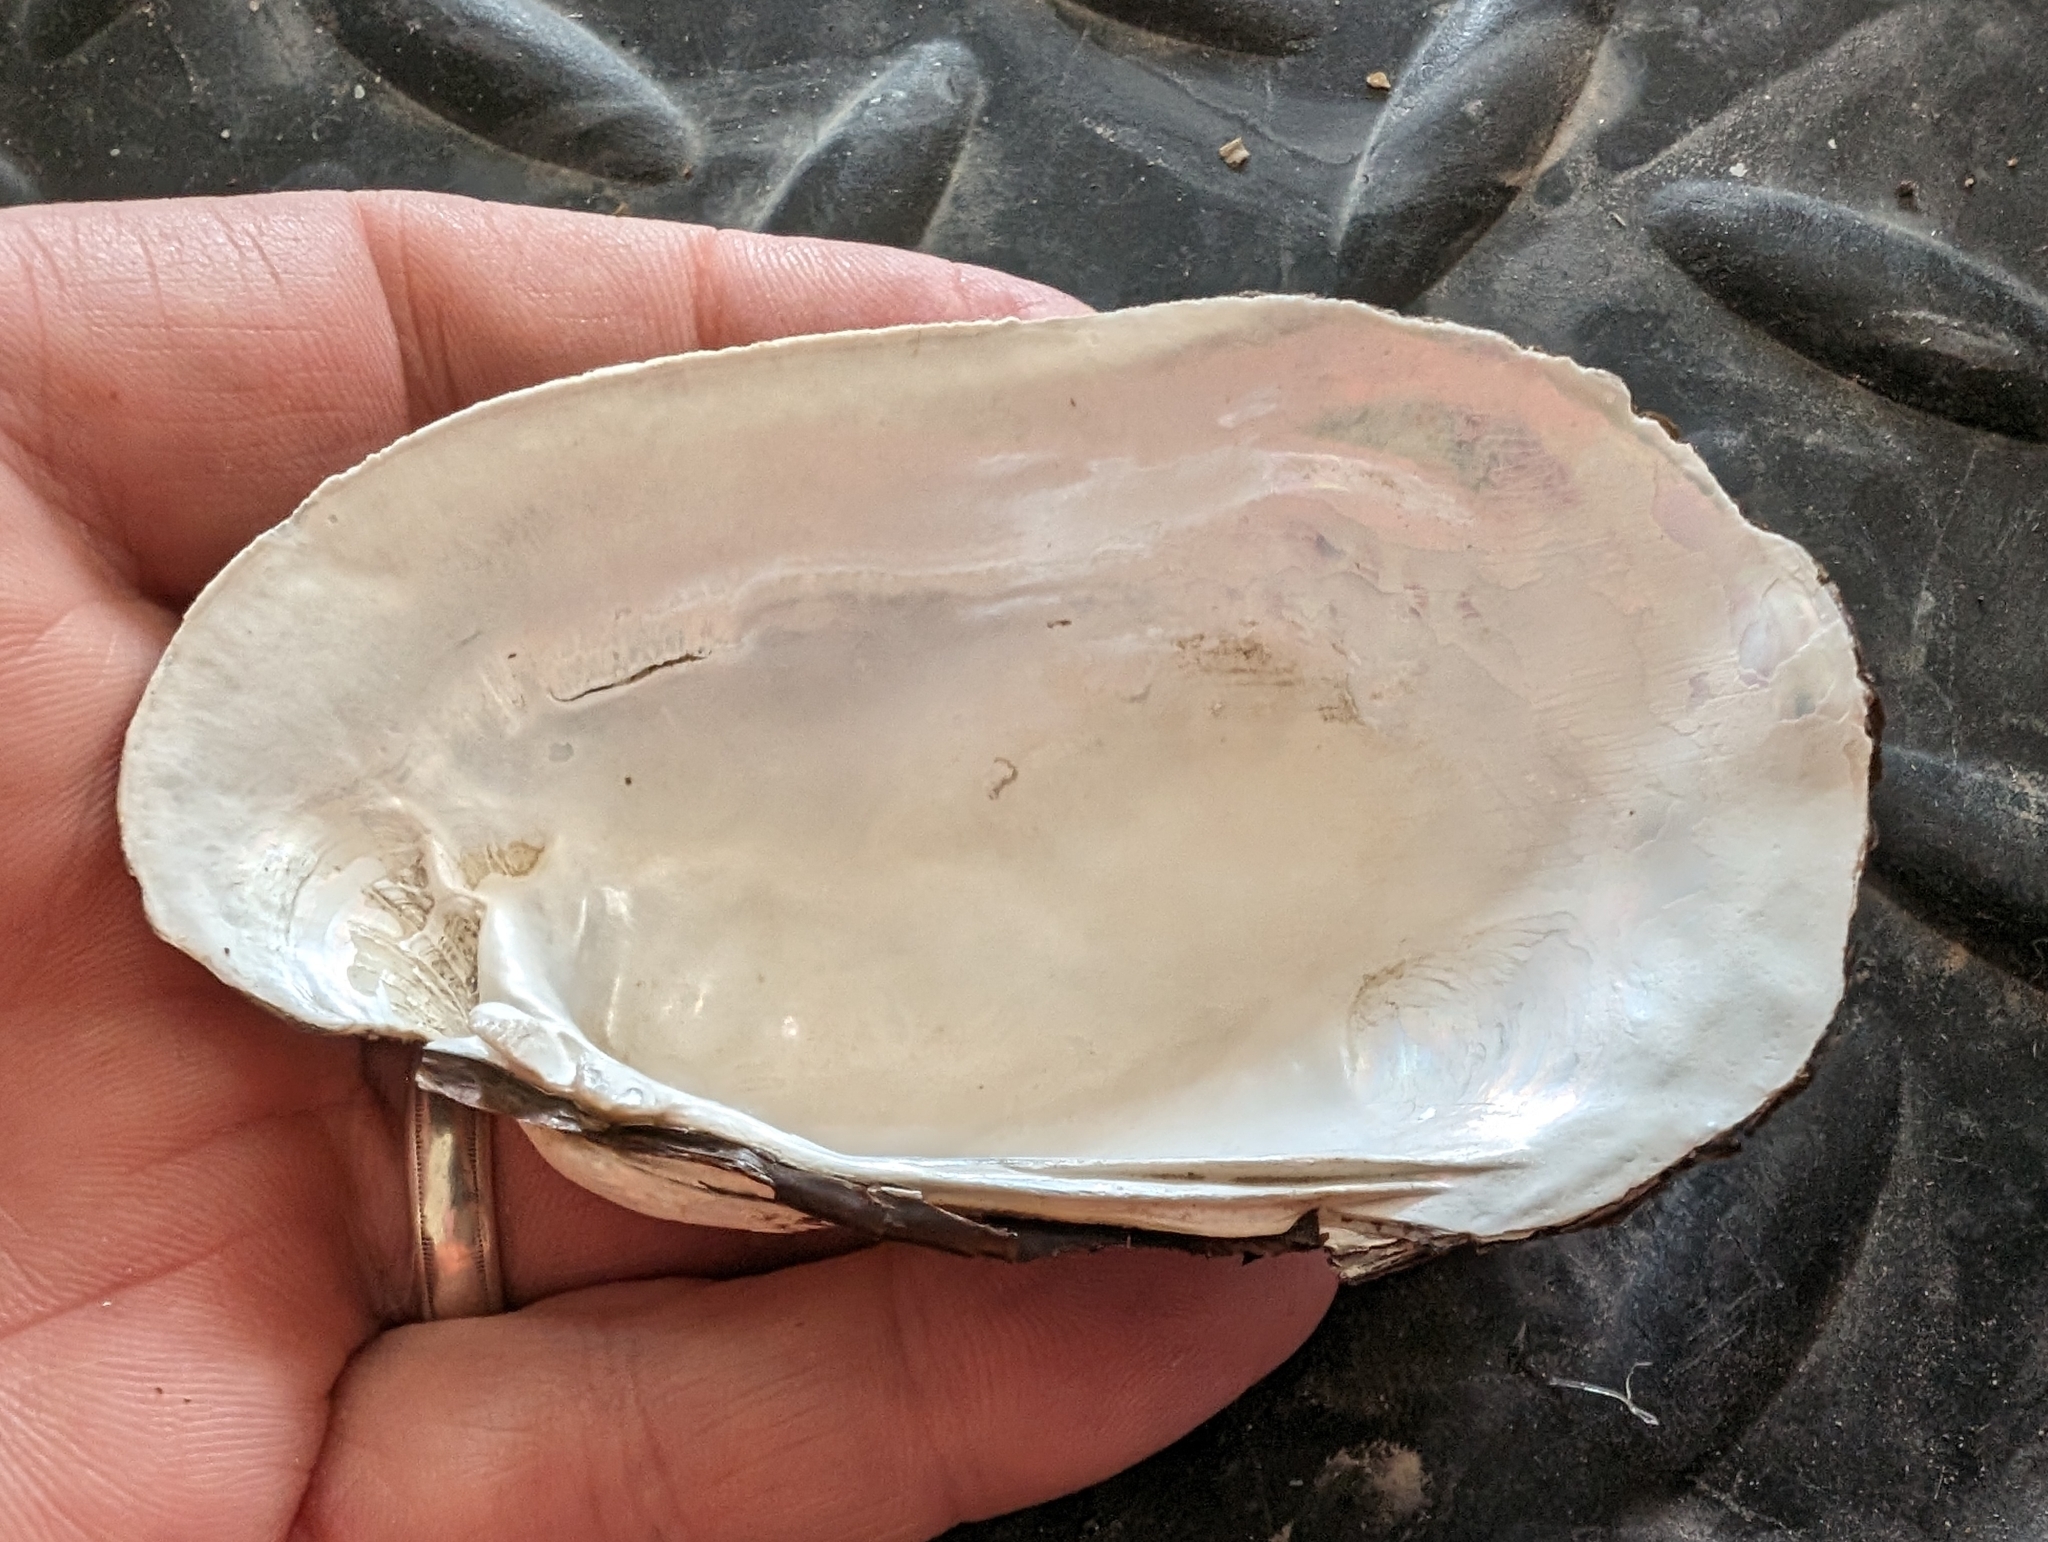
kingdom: Animalia
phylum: Mollusca
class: Bivalvia
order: Unionida
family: Unionidae
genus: Lampsilis
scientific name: Lampsilis siliquoidea
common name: Fatmucket
